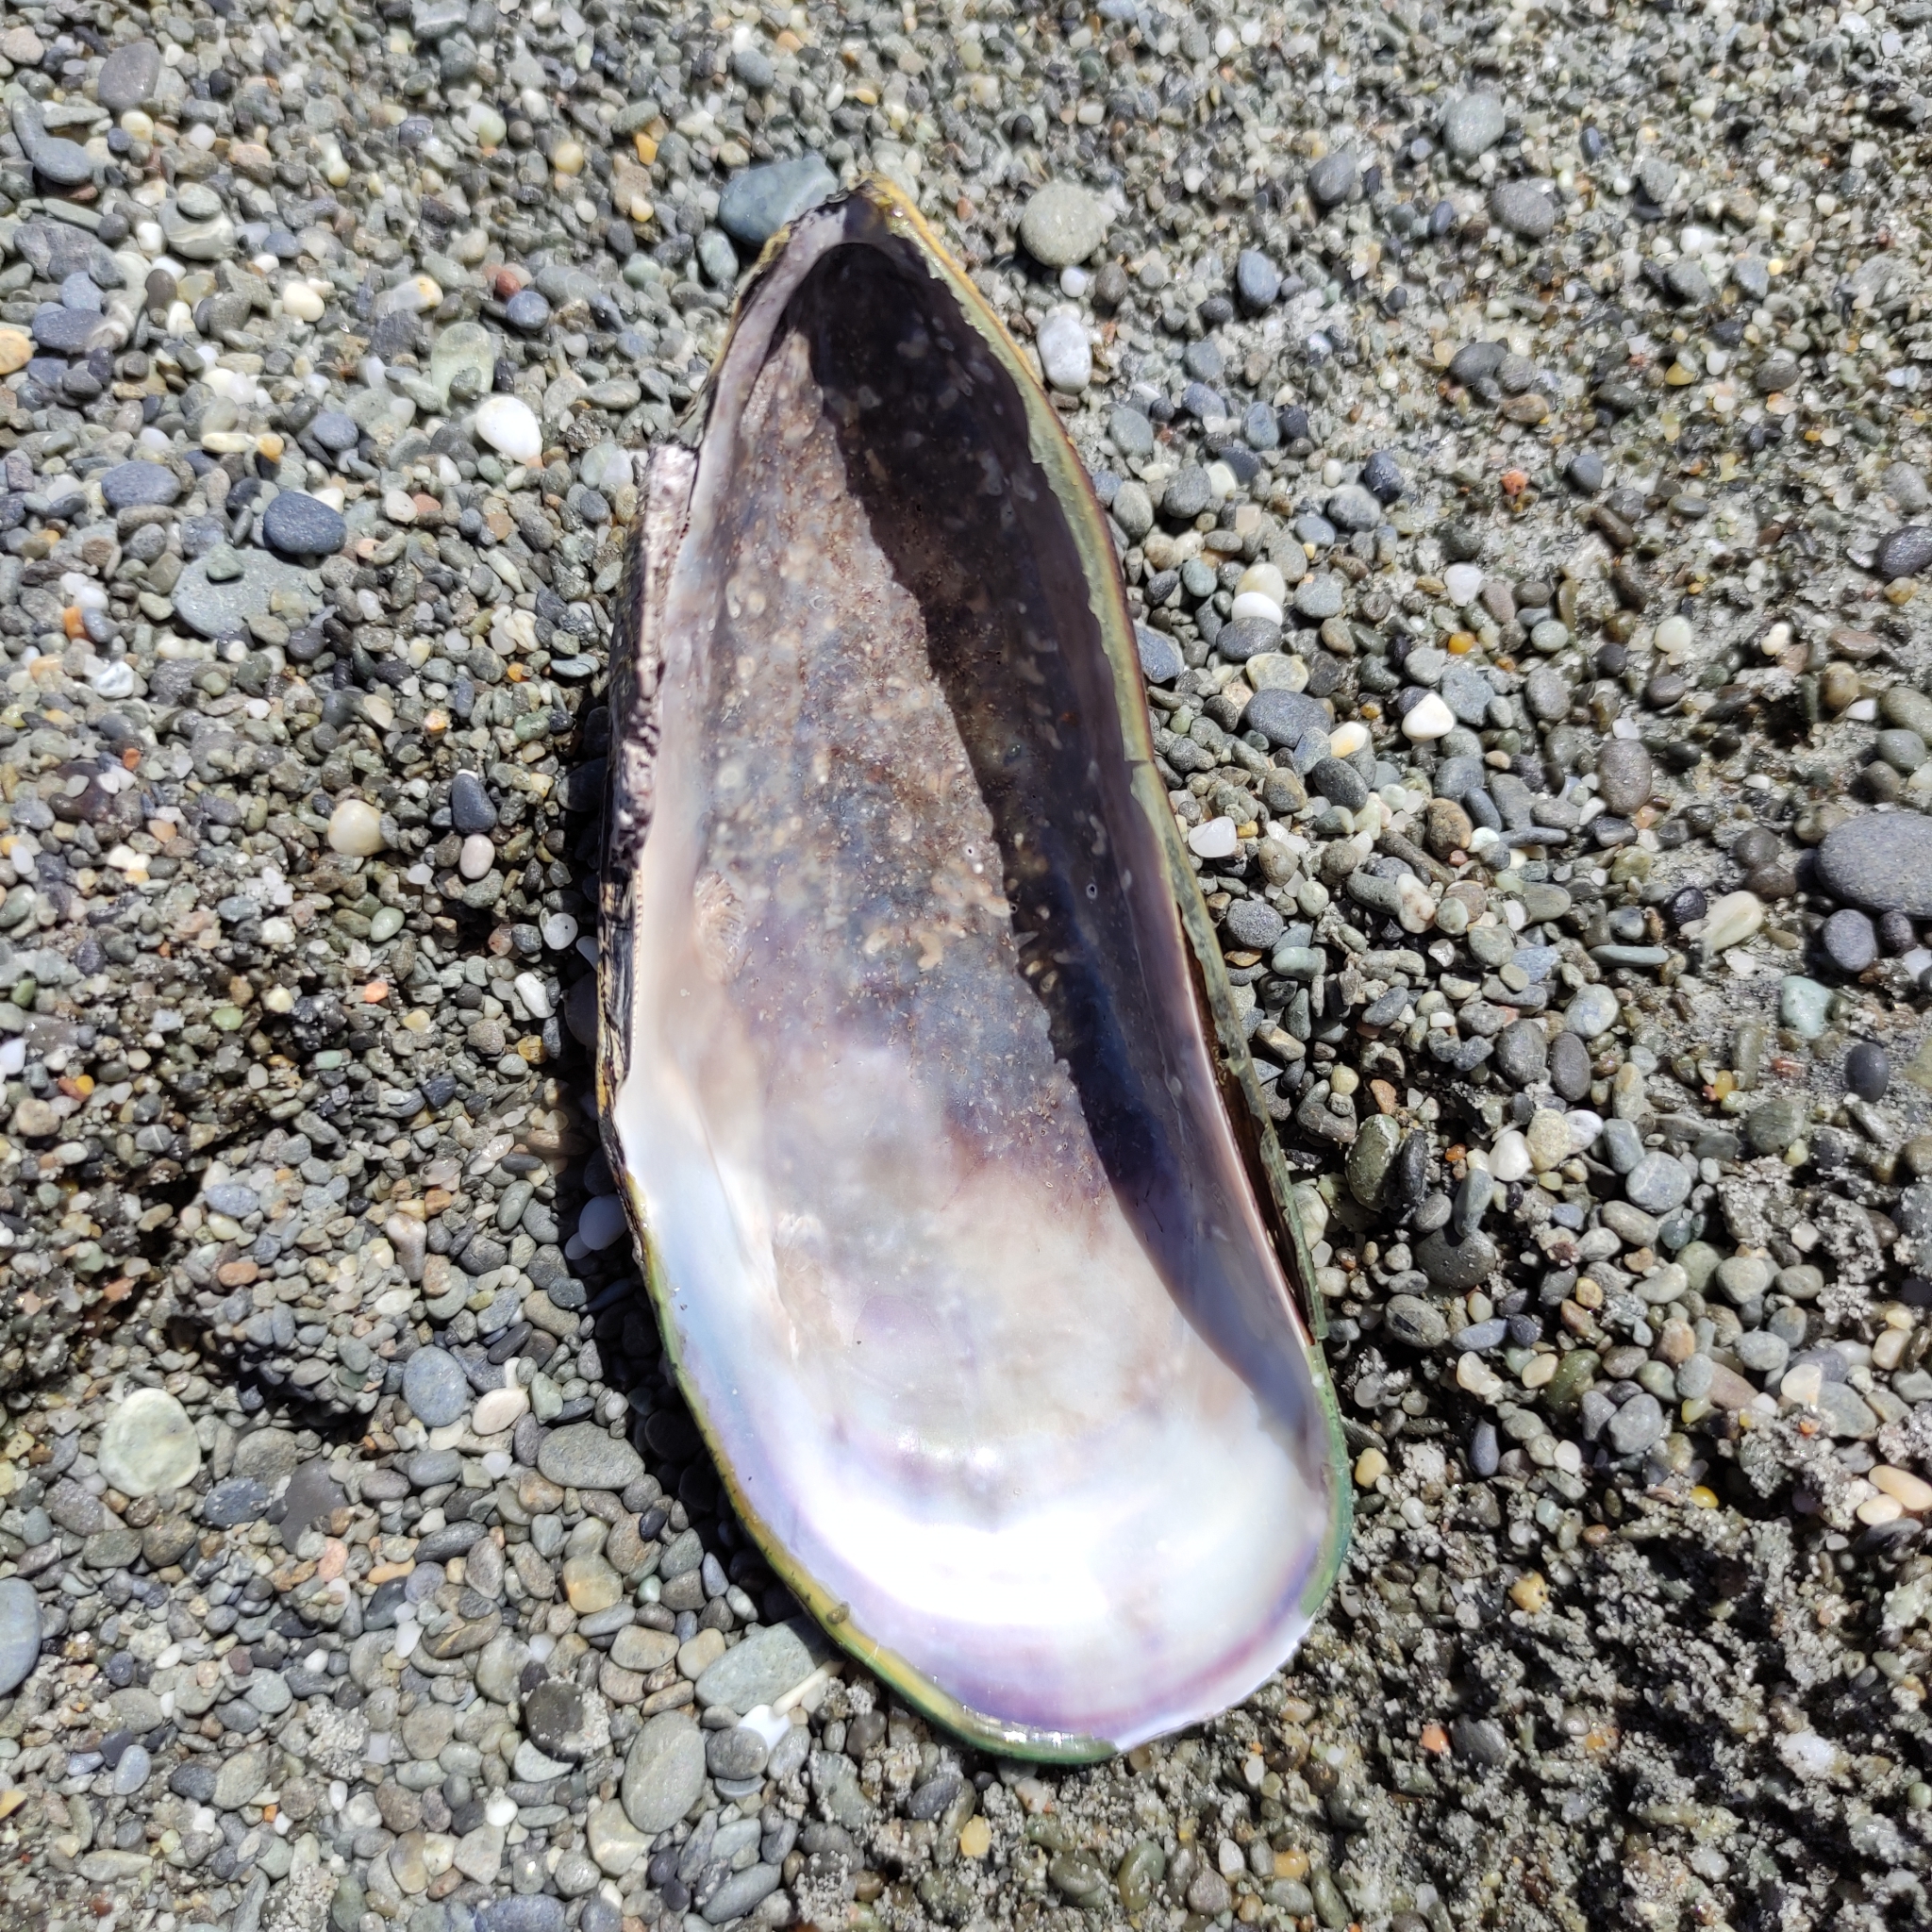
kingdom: Animalia
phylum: Mollusca
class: Bivalvia
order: Mytilida
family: Mytilidae
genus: Perna
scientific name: Perna canaliculus
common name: New zealand greenshelltm
